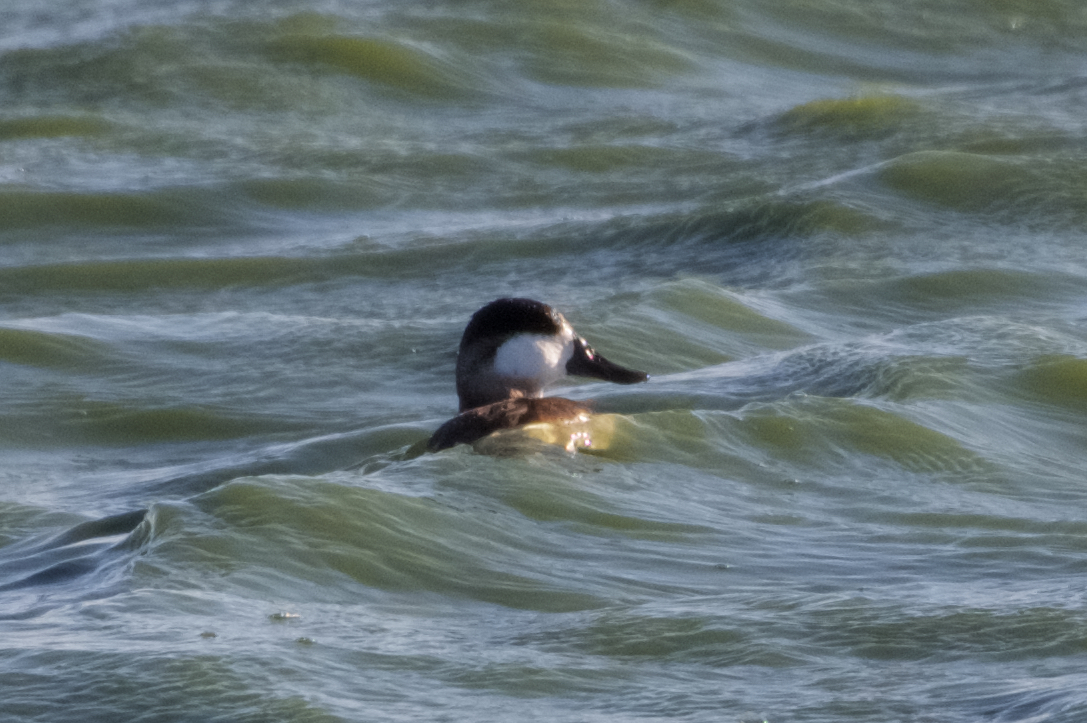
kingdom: Animalia
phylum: Chordata
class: Aves
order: Anseriformes
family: Anatidae
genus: Oxyura
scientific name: Oxyura jamaicensis
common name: Ruddy duck
